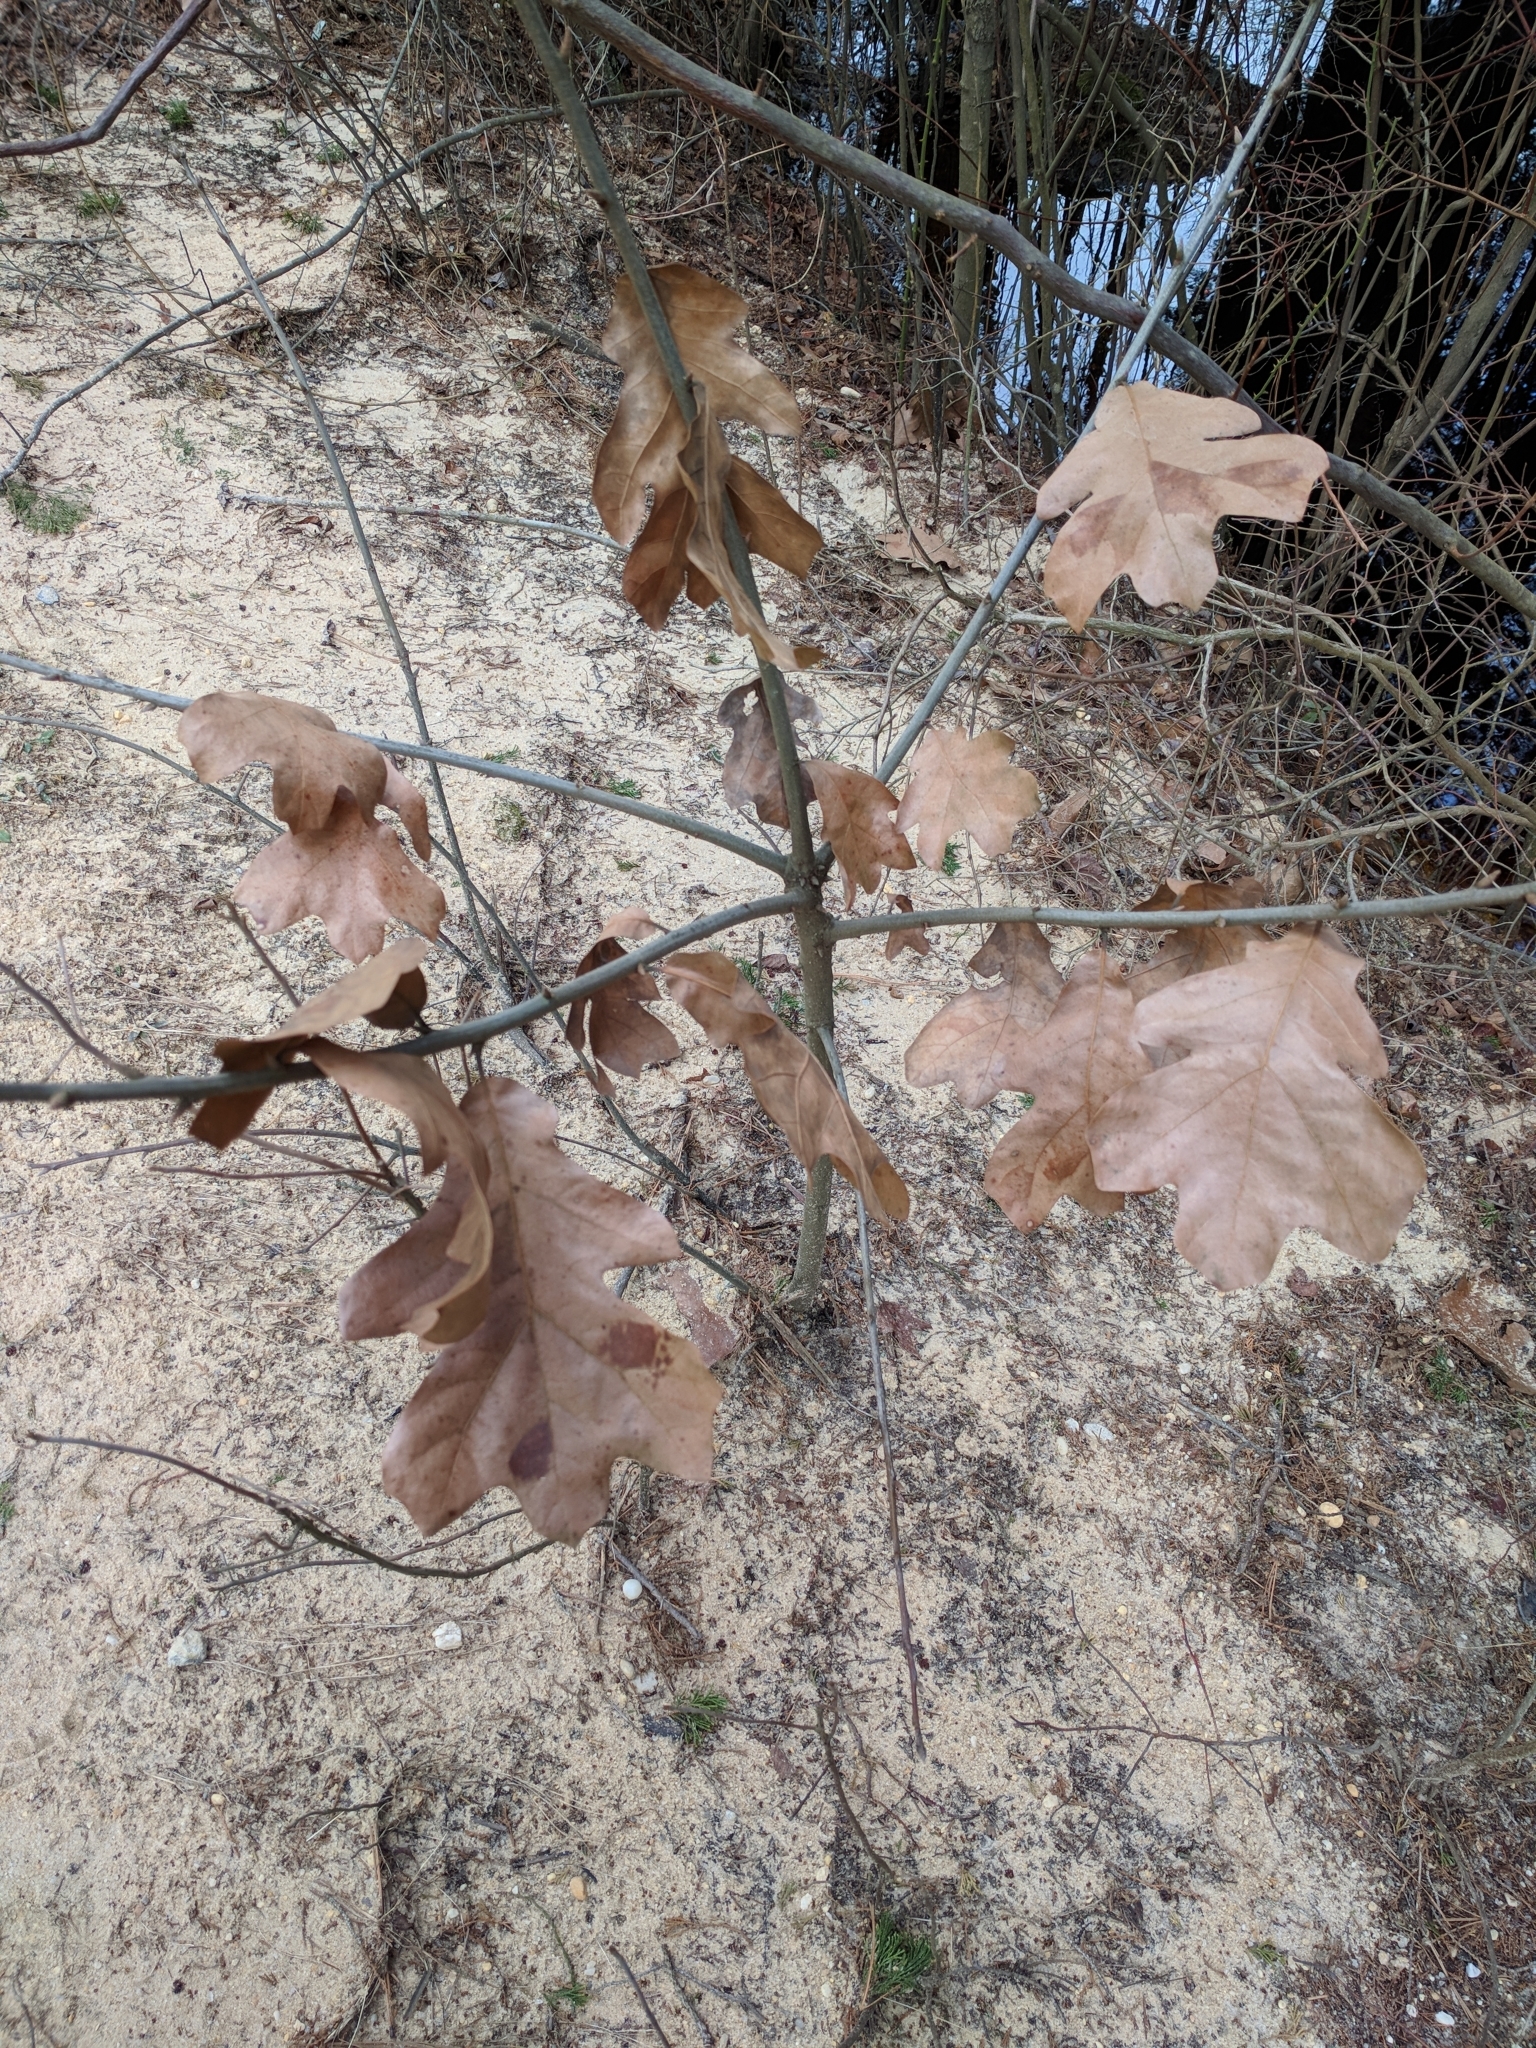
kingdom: Plantae
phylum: Tracheophyta
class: Magnoliopsida
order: Fagales
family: Fagaceae
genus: Quercus
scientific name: Quercus marilandica
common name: Blackjack oak
